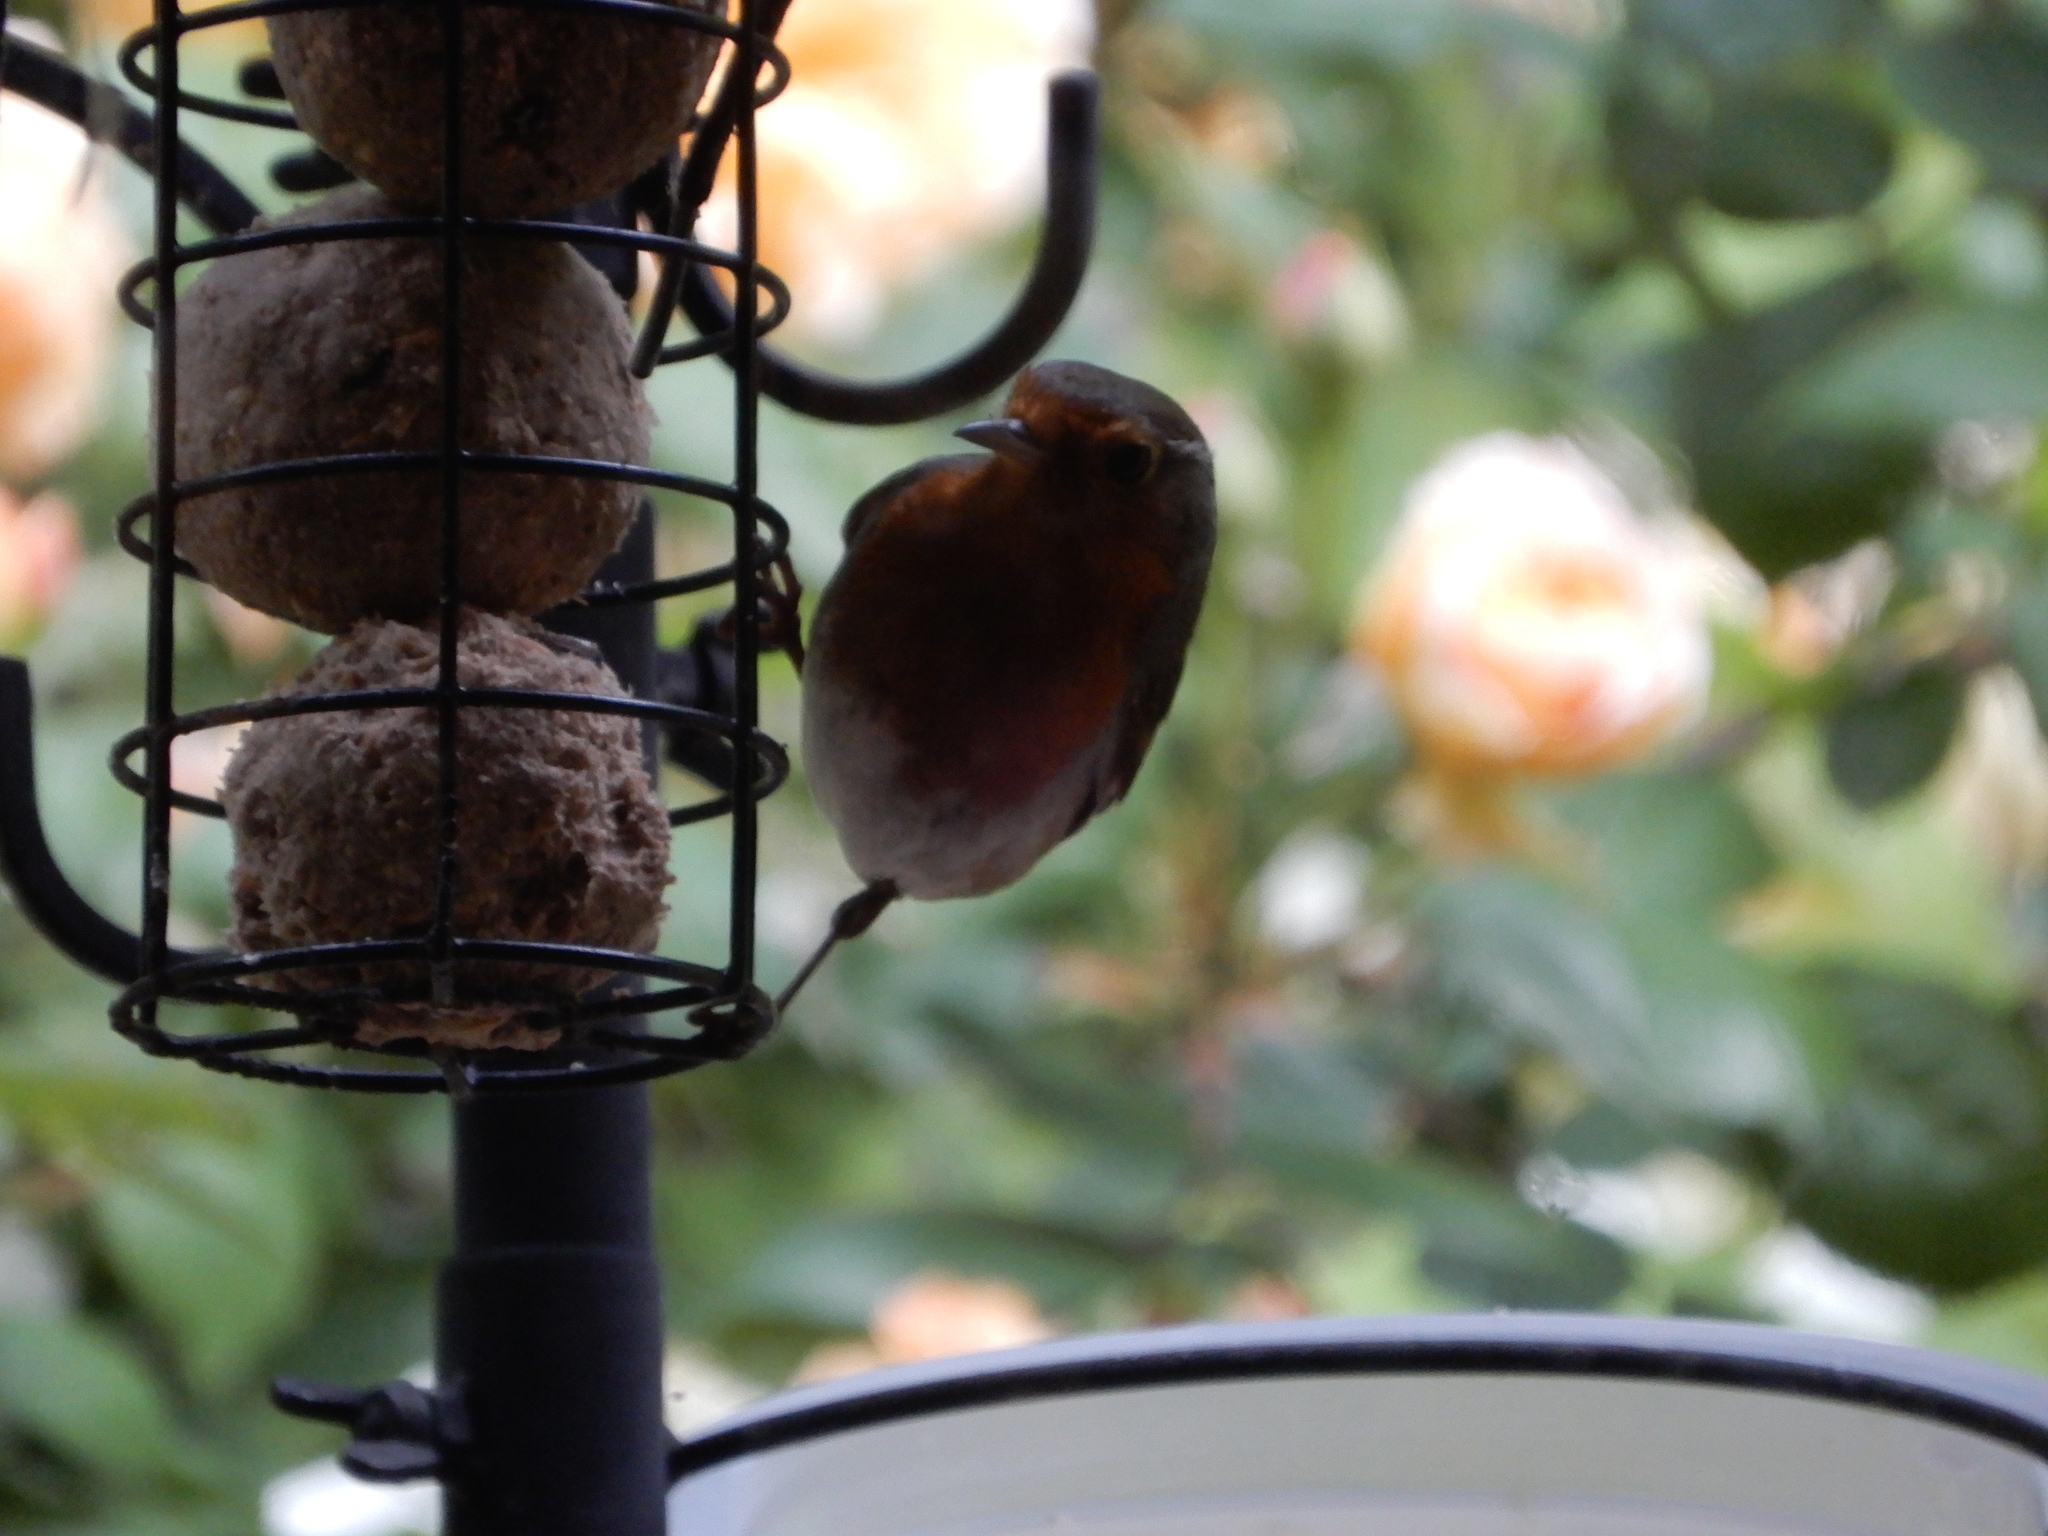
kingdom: Animalia
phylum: Chordata
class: Aves
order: Passeriformes
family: Muscicapidae
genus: Erithacus
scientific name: Erithacus rubecula
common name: European robin
